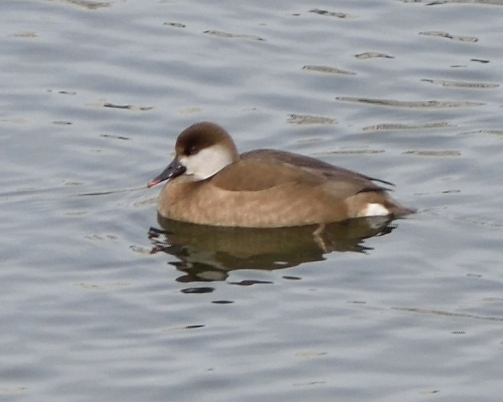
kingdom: Animalia
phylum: Chordata
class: Aves
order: Anseriformes
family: Anatidae
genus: Netta
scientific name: Netta rufina
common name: Red-crested pochard
